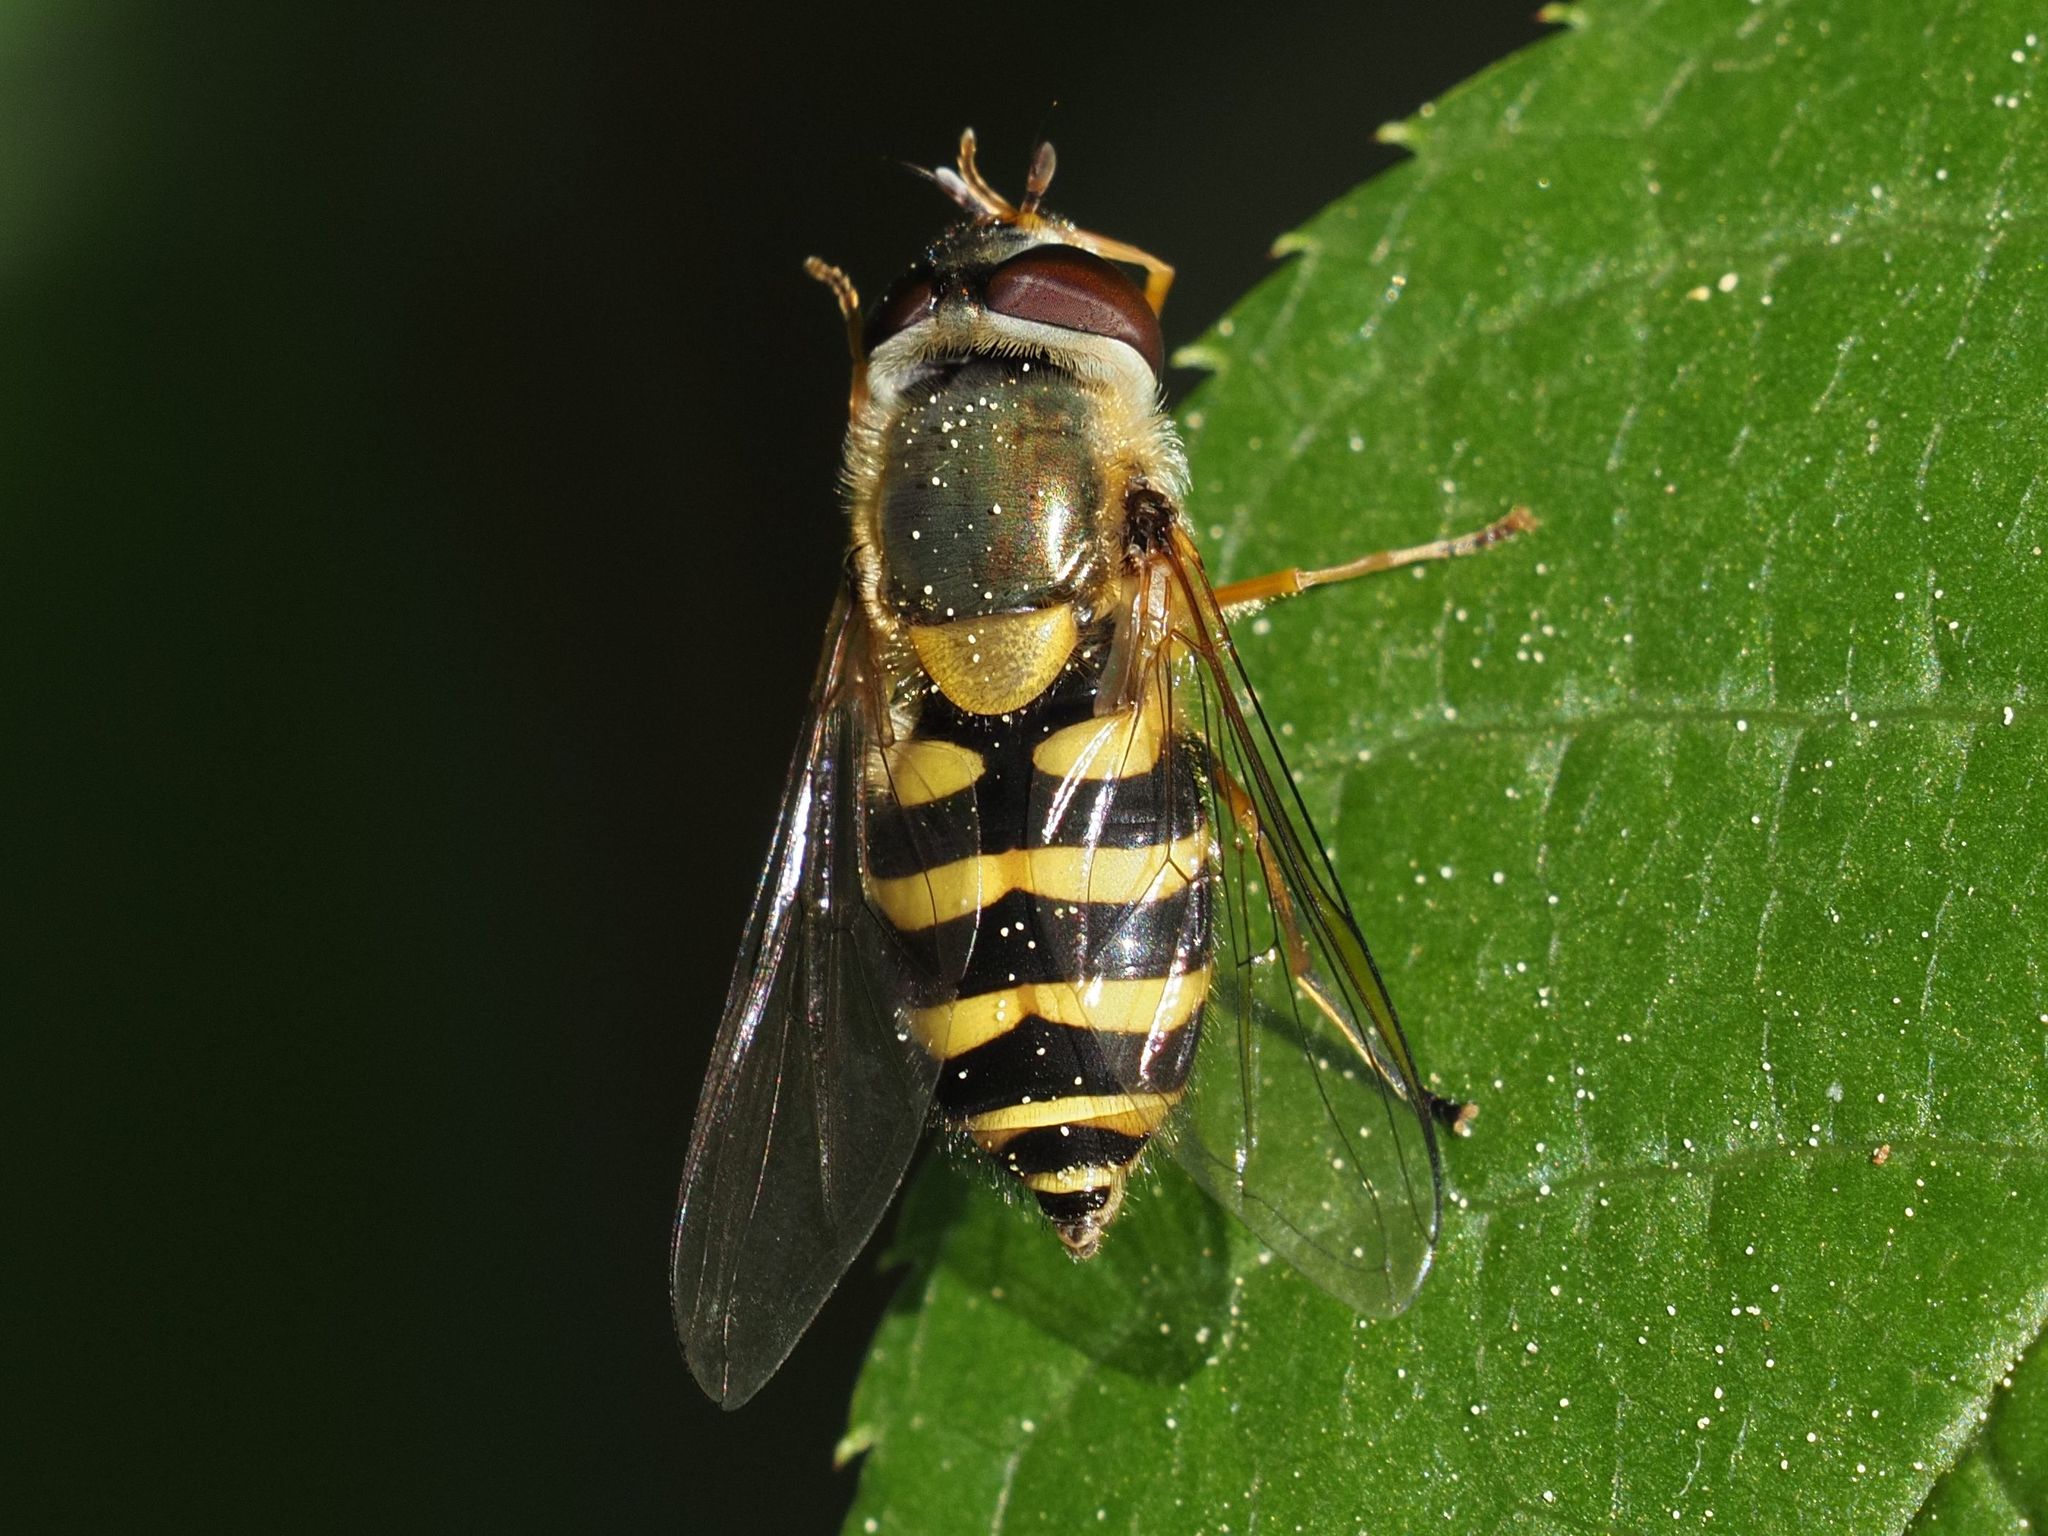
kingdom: Animalia
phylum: Arthropoda
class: Insecta
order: Diptera
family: Syrphidae
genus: Syrphus
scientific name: Syrphus vitripennis
